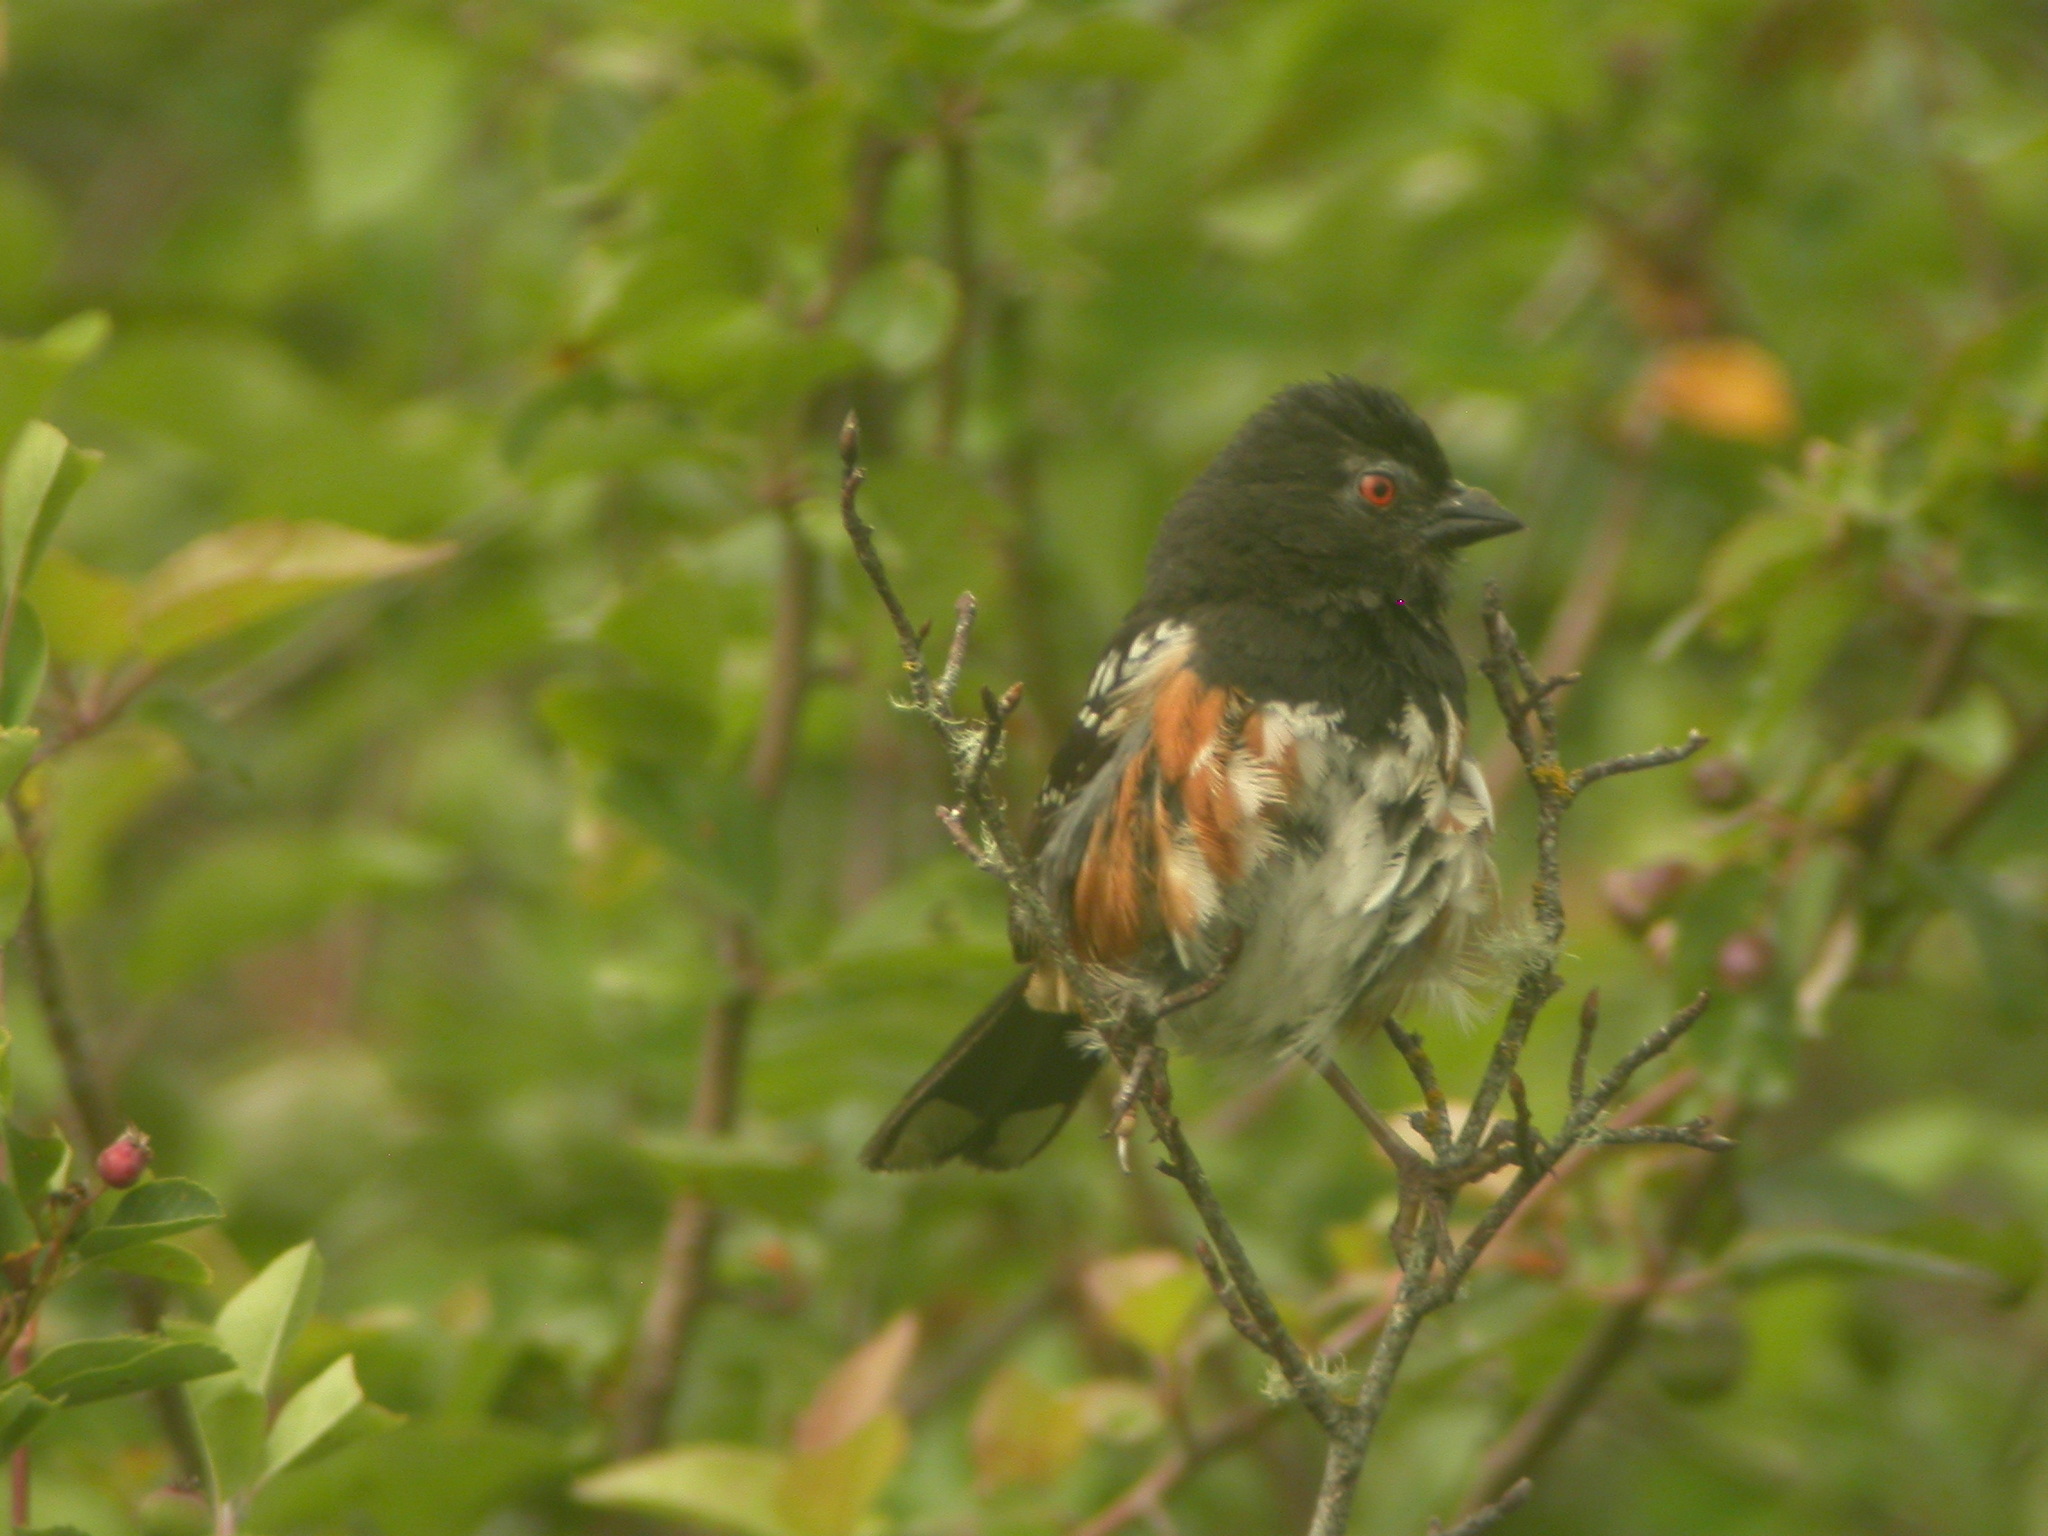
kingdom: Animalia
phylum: Chordata
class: Aves
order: Passeriformes
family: Passerellidae
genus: Pipilo
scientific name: Pipilo maculatus
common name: Spotted towhee
